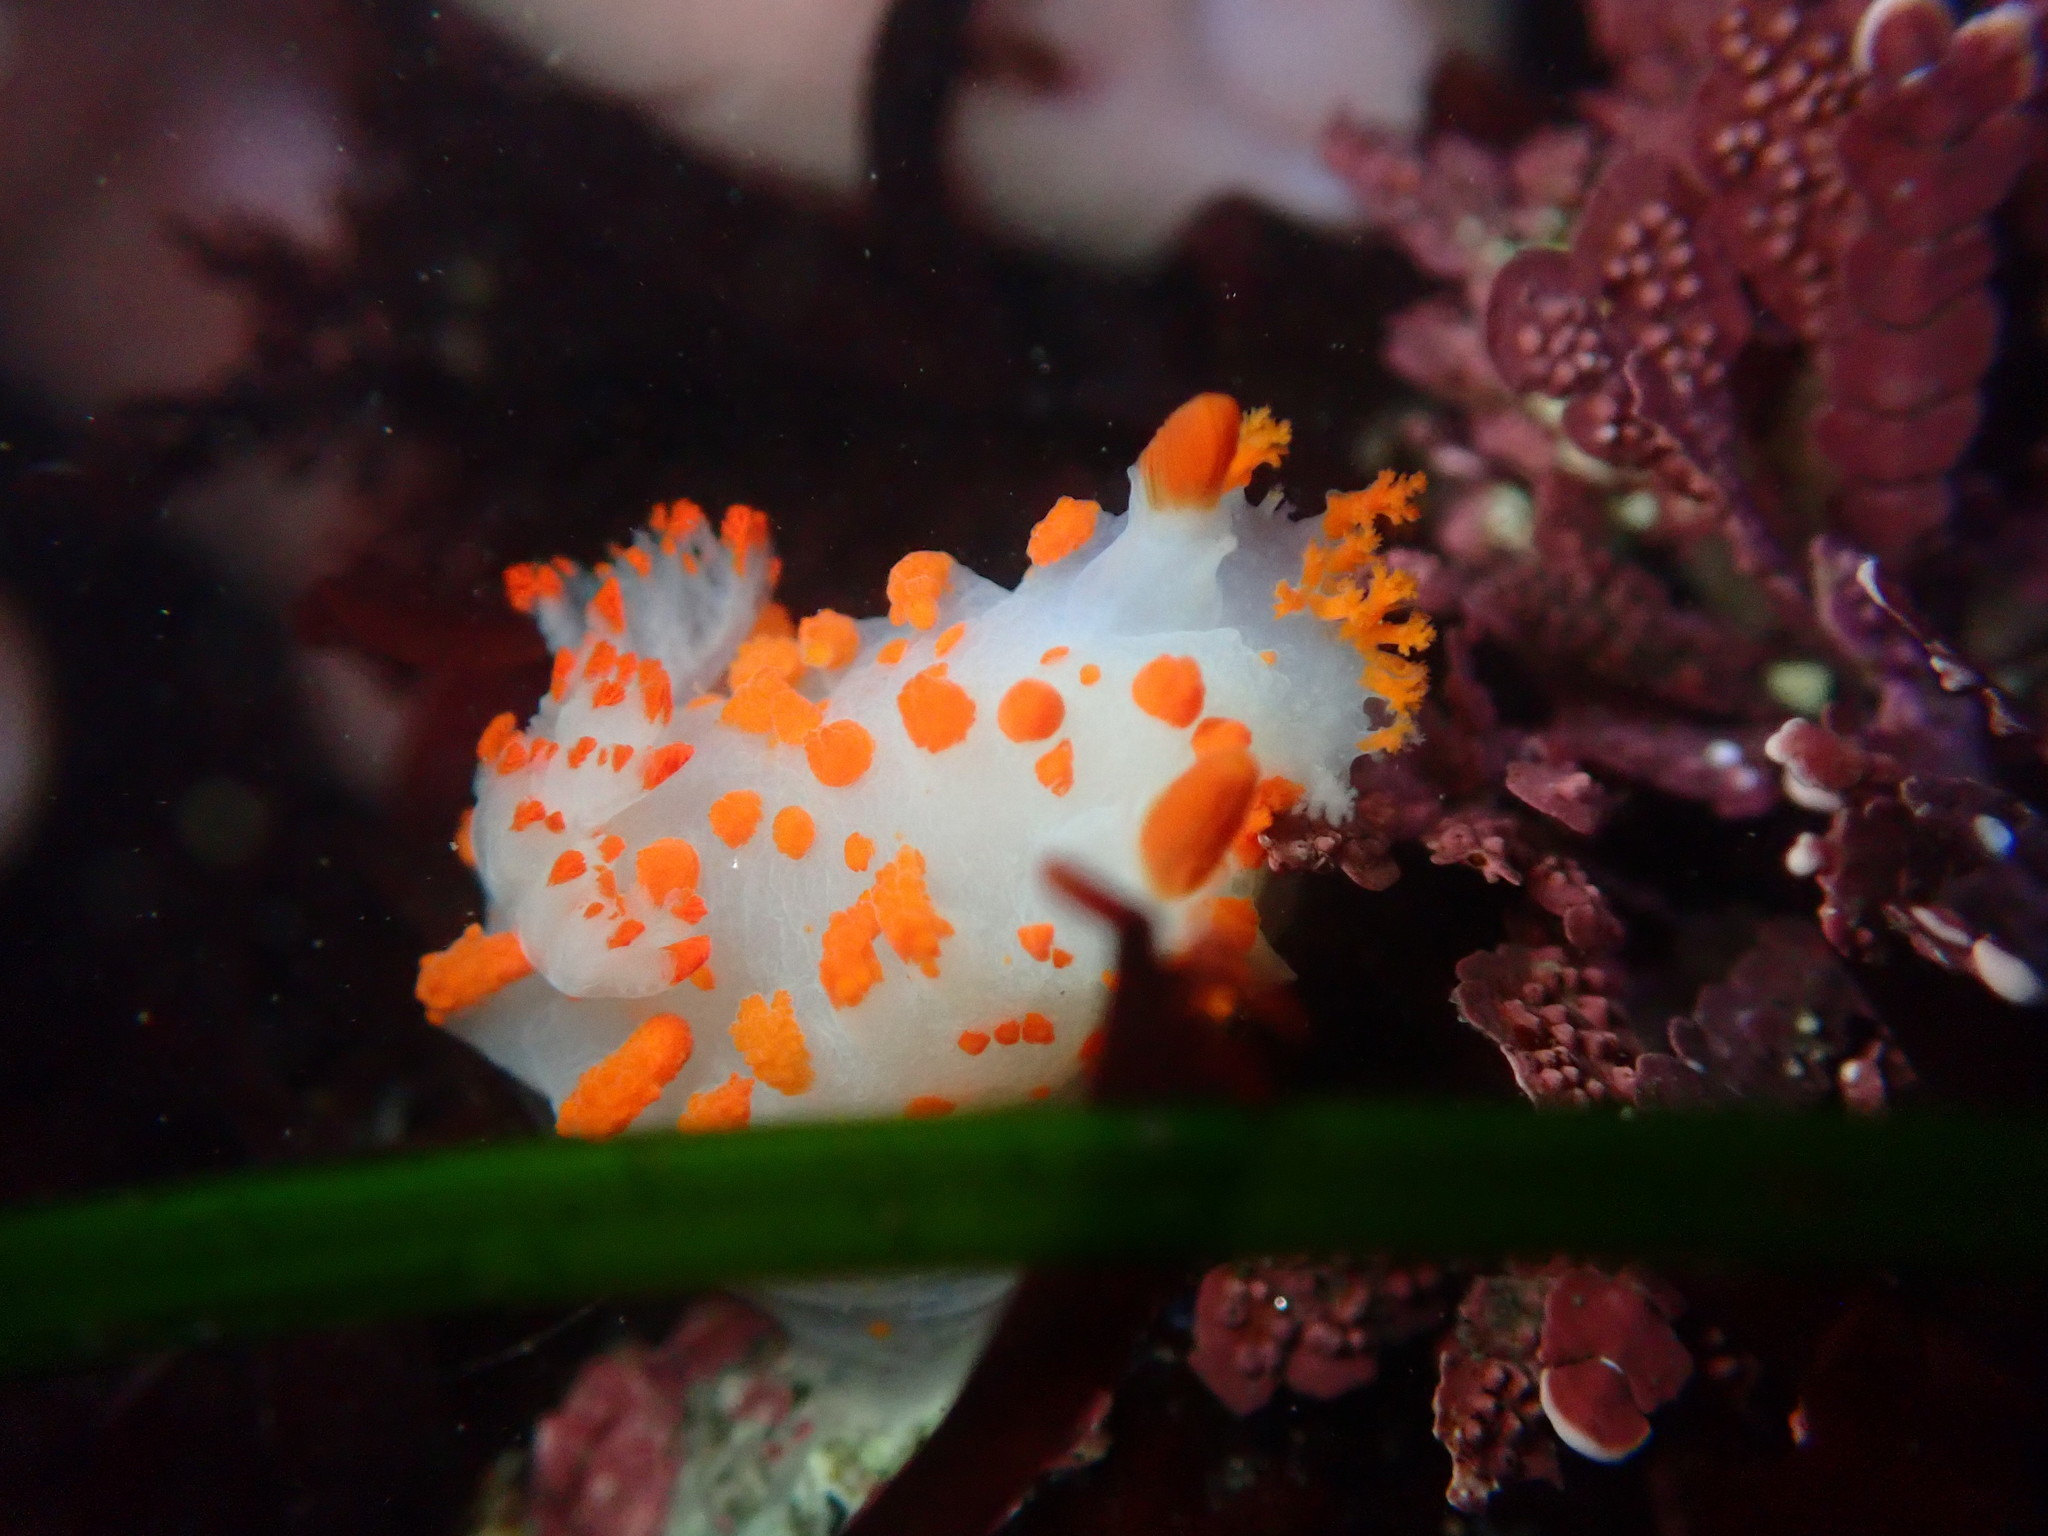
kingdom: Animalia
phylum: Mollusca
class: Gastropoda
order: Nudibranchia
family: Polyceridae
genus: Triopha
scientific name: Triopha catalinae
